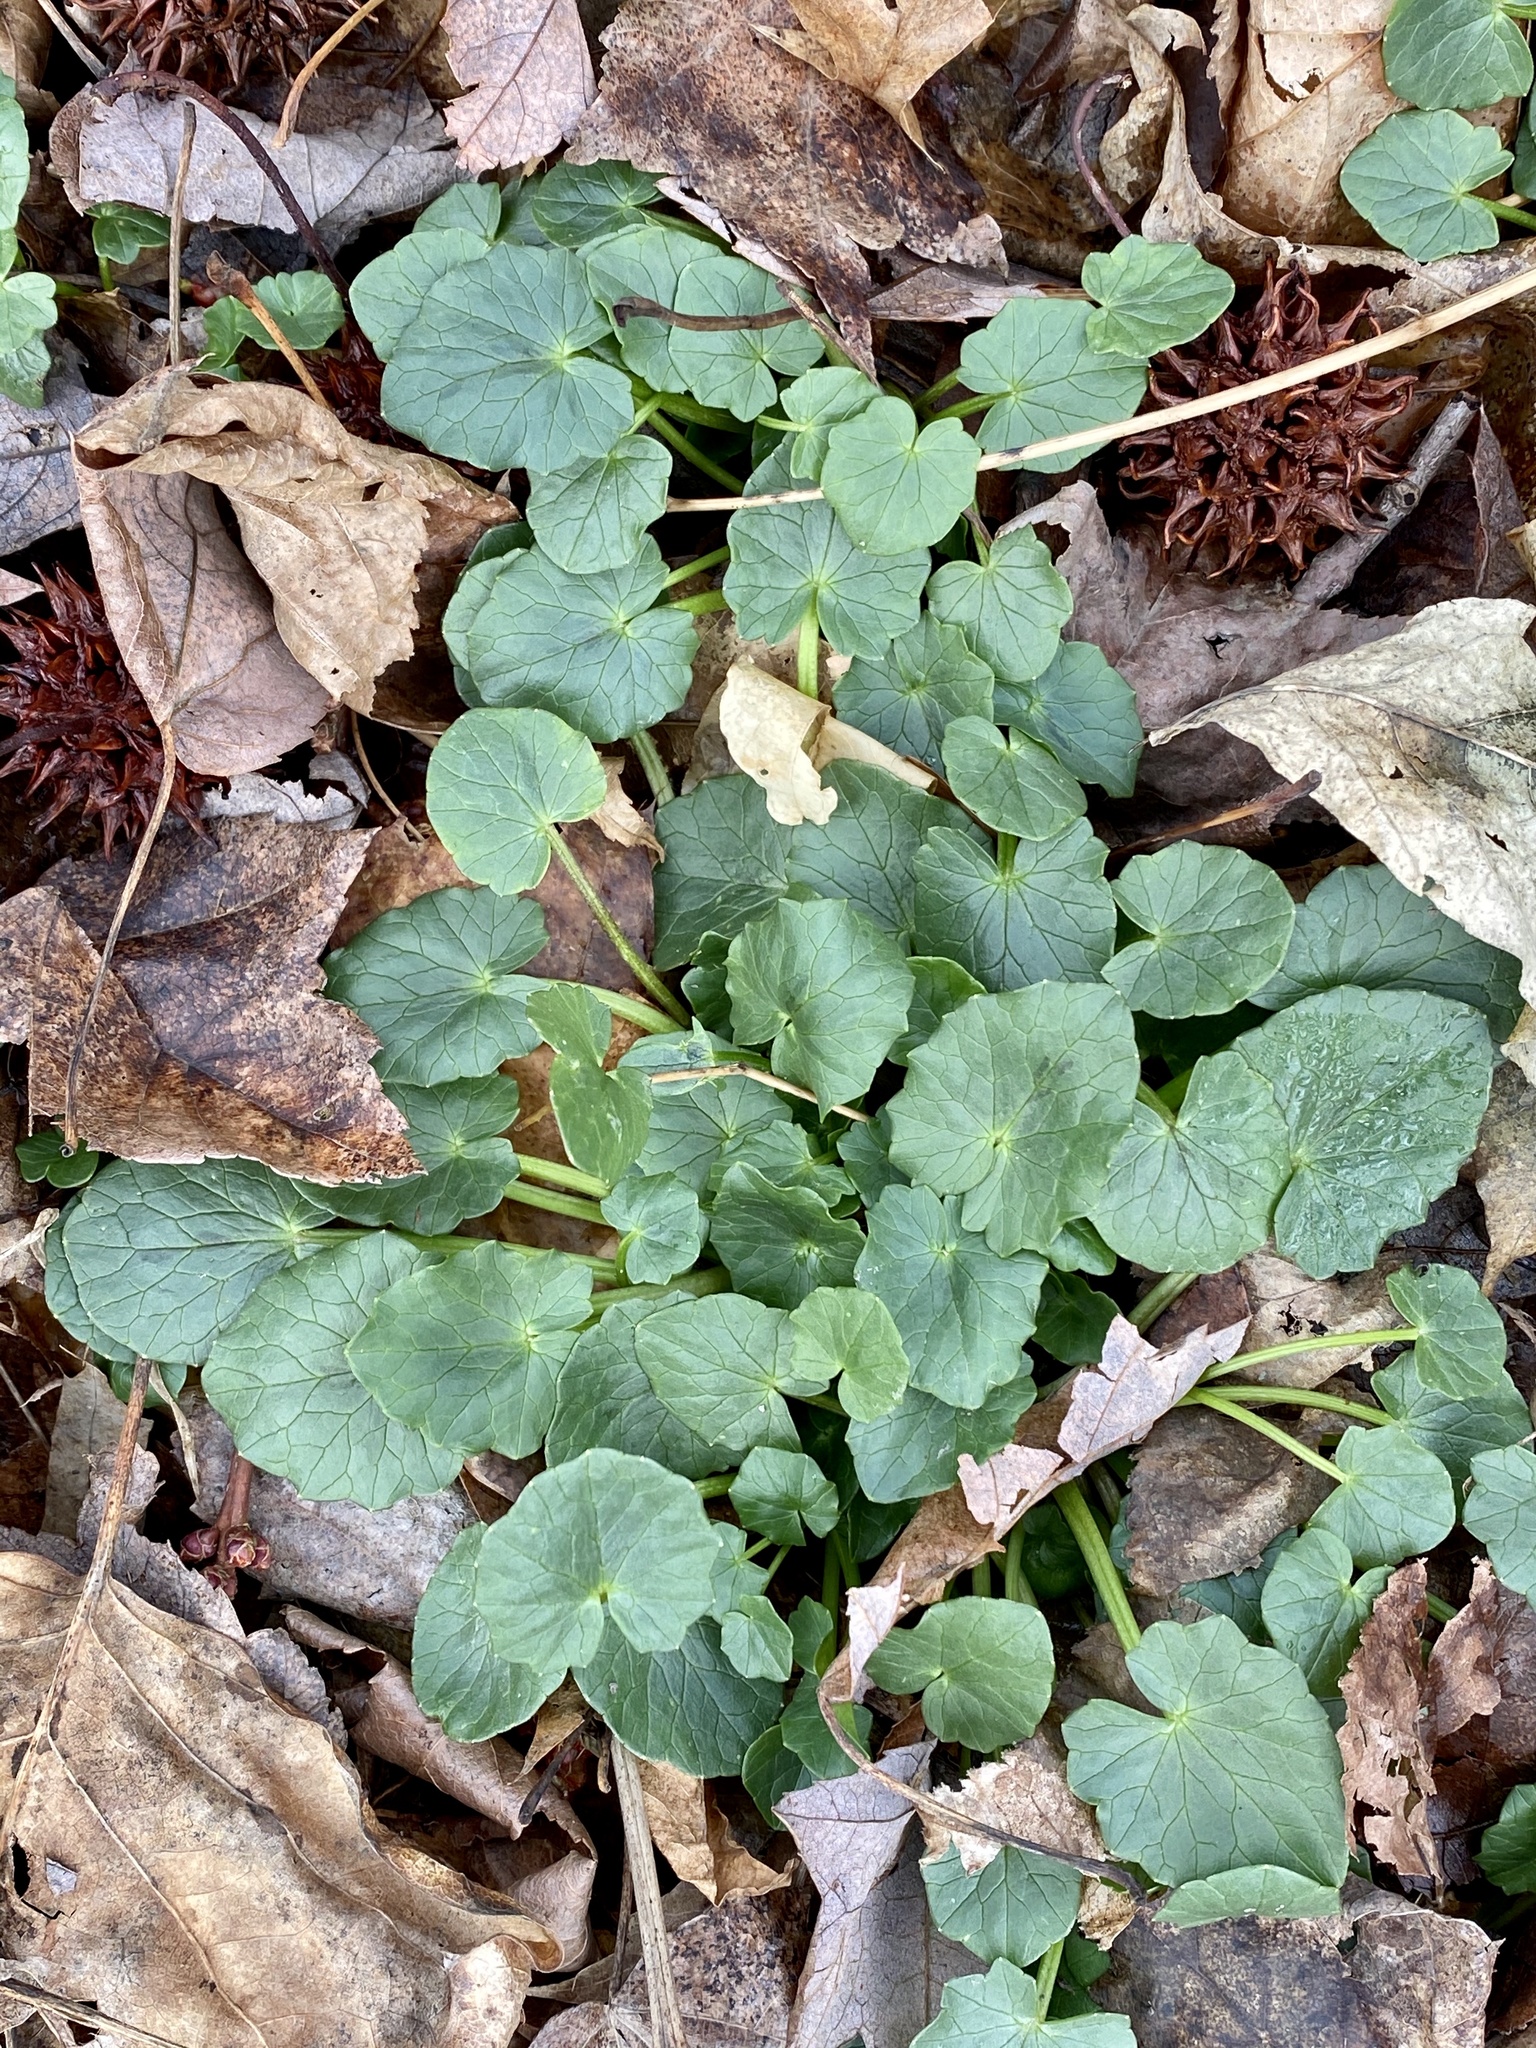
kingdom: Plantae
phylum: Tracheophyta
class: Magnoliopsida
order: Ranunculales
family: Ranunculaceae
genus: Ficaria
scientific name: Ficaria verna
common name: Lesser celandine
